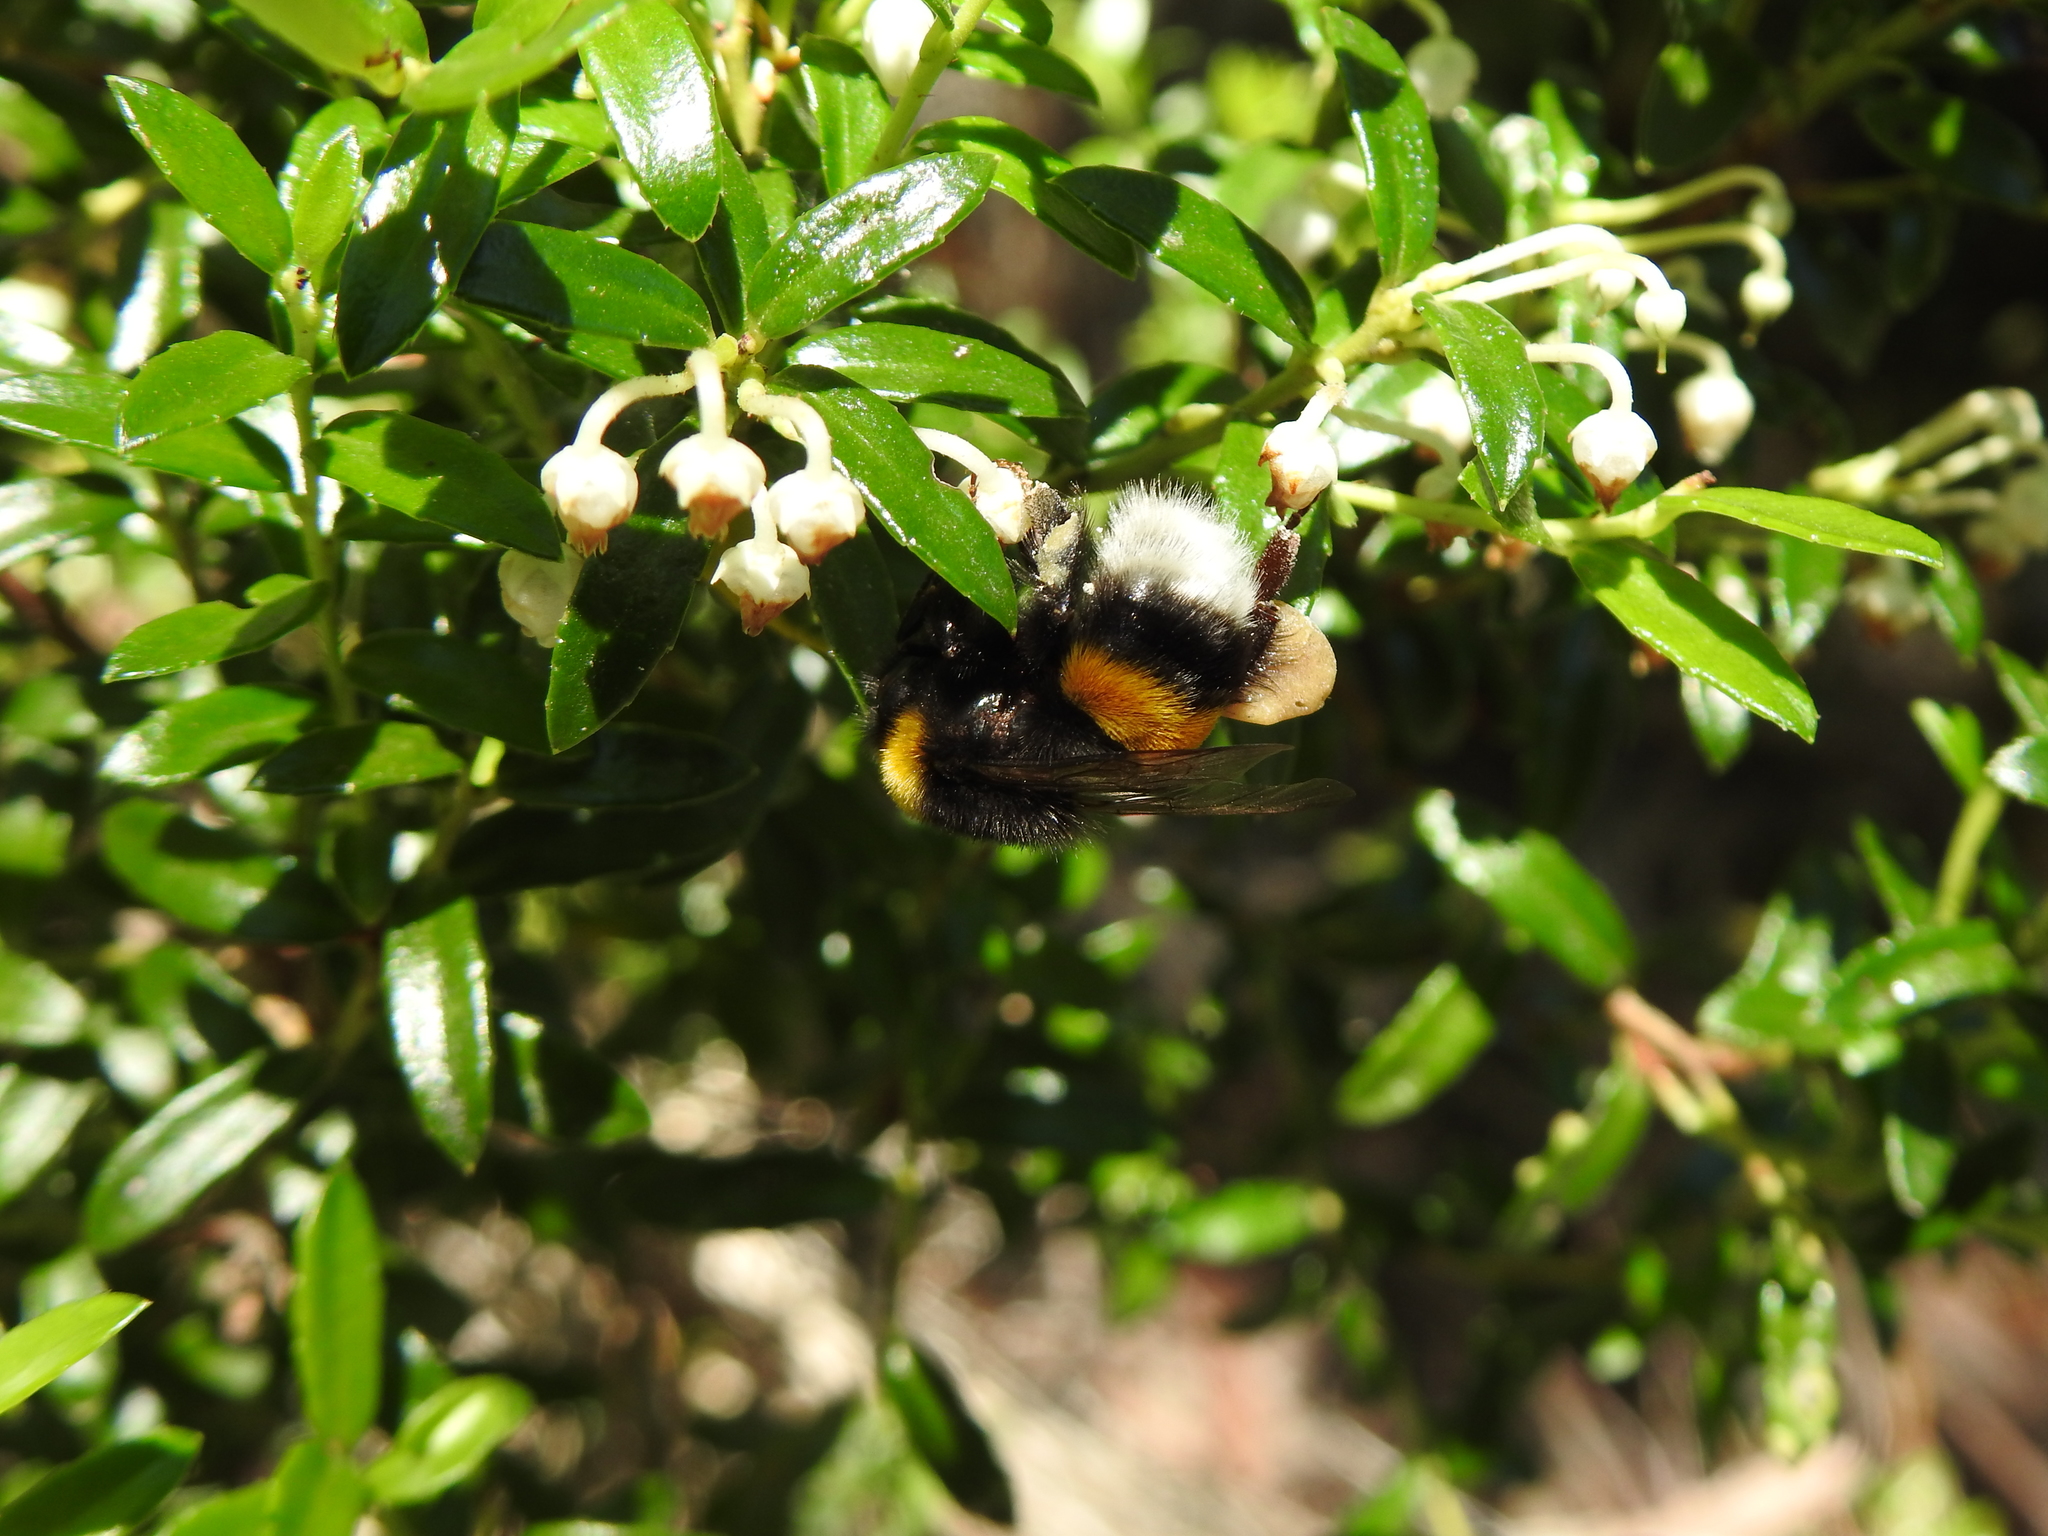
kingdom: Animalia
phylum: Arthropoda
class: Insecta
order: Hymenoptera
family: Apidae
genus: Bombus
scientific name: Bombus terrestris
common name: Buff-tailed bumblebee
